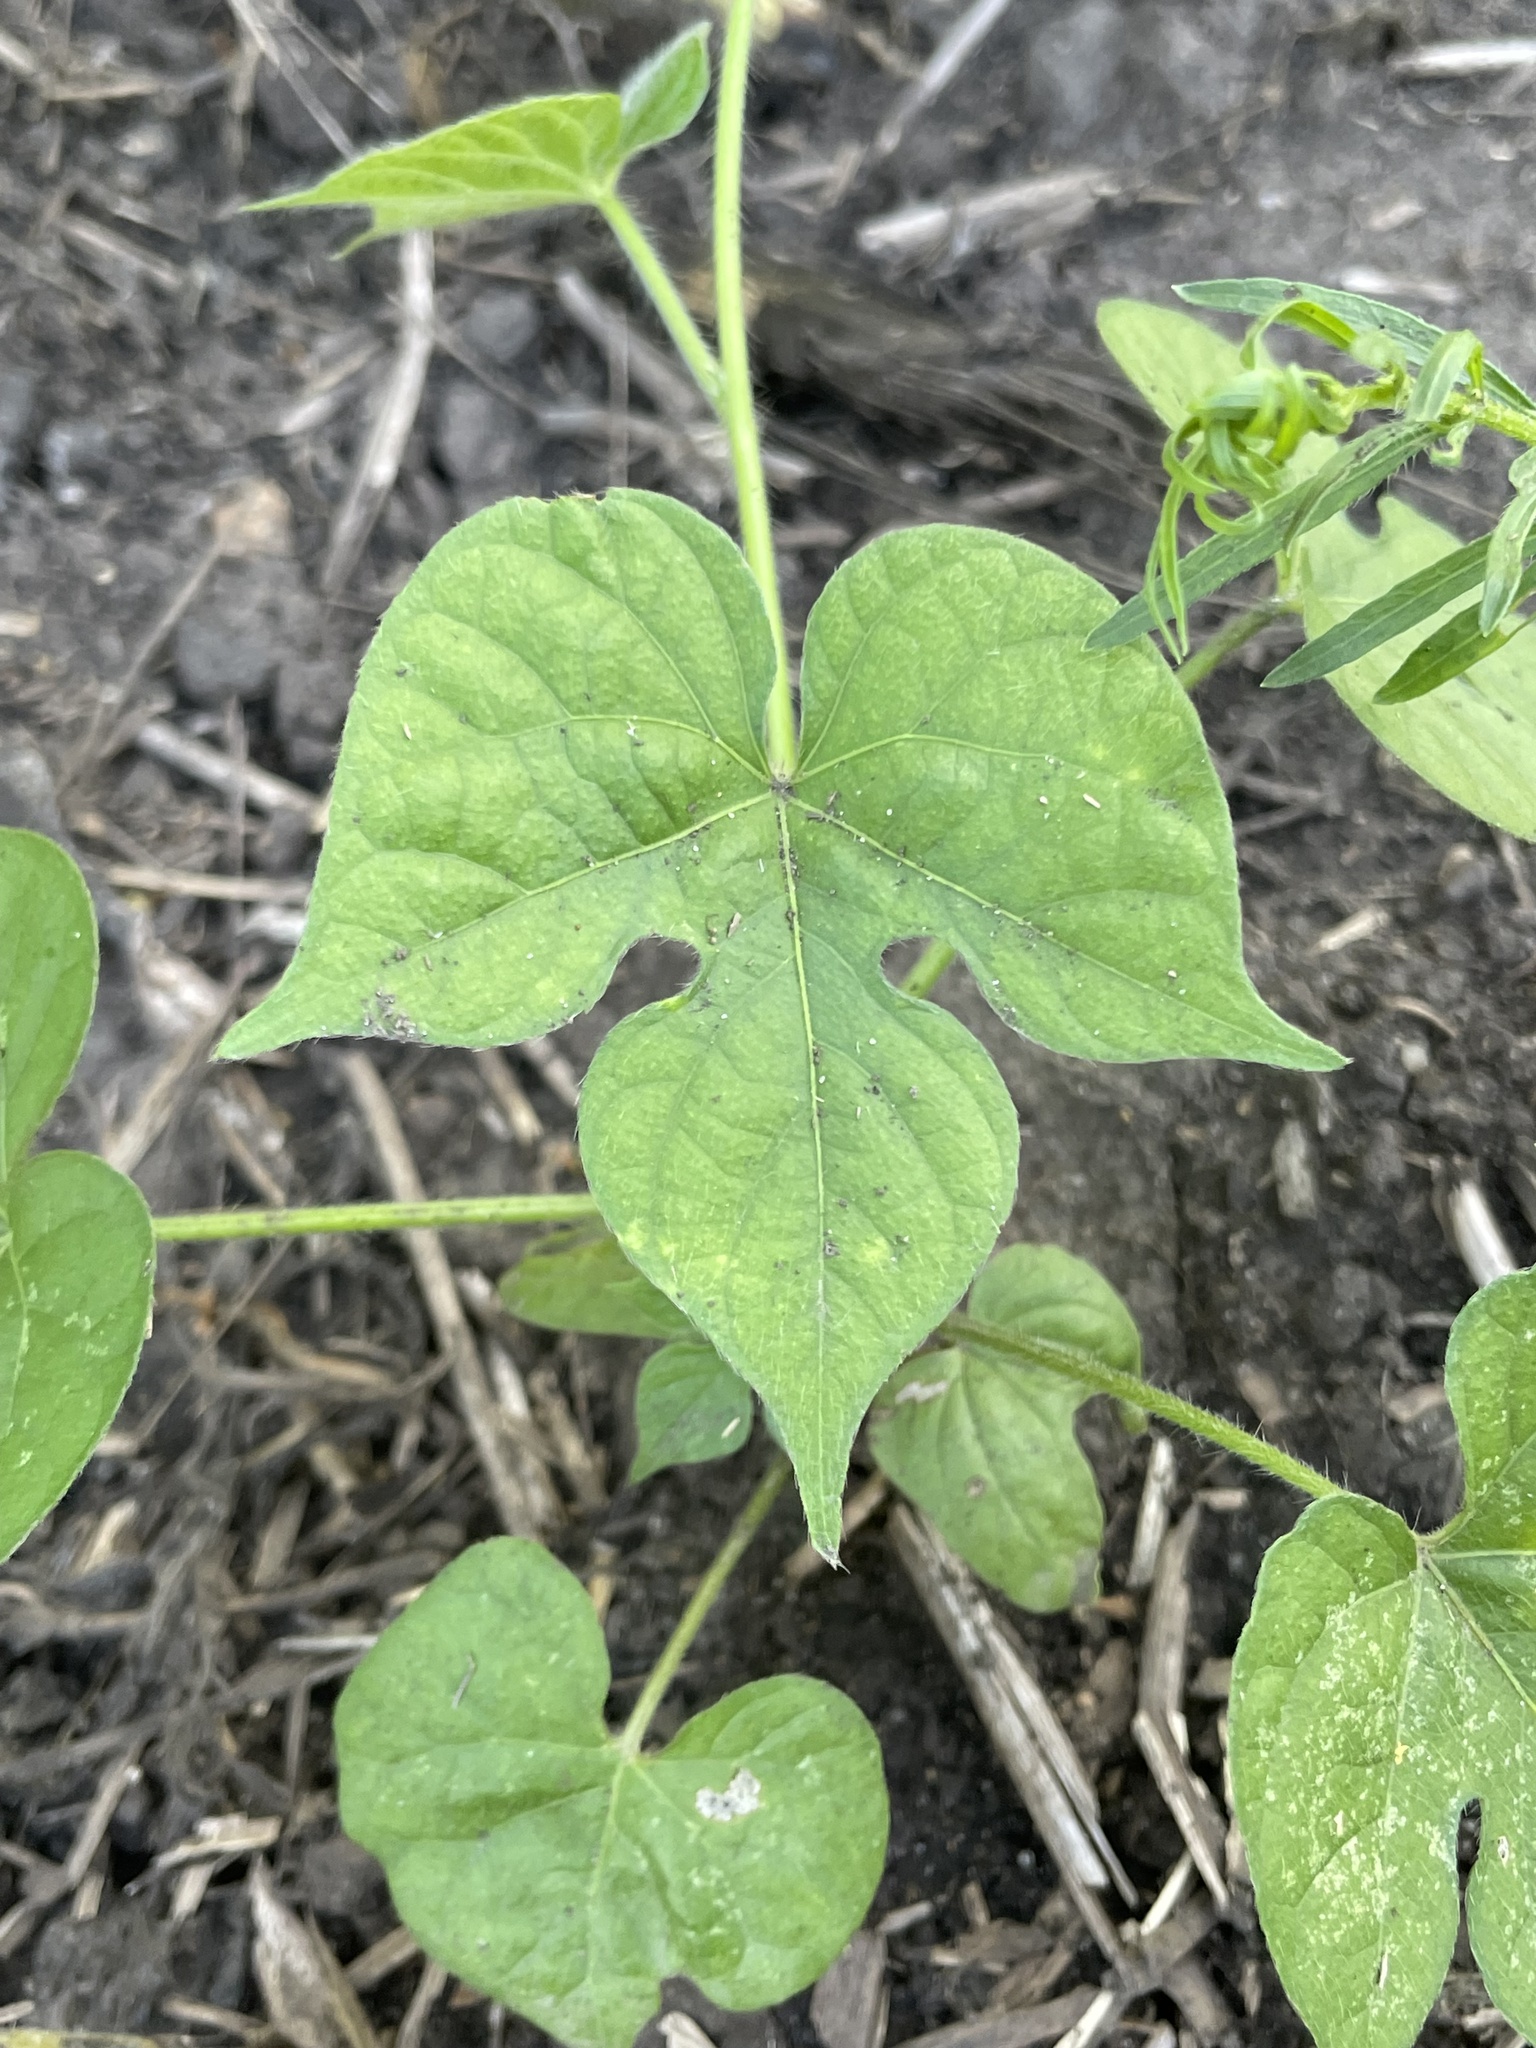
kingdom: Plantae
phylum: Tracheophyta
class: Magnoliopsida
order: Solanales
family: Convolvulaceae
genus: Ipomoea
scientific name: Ipomoea hederacea
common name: Ivy-leaved morning-glory
